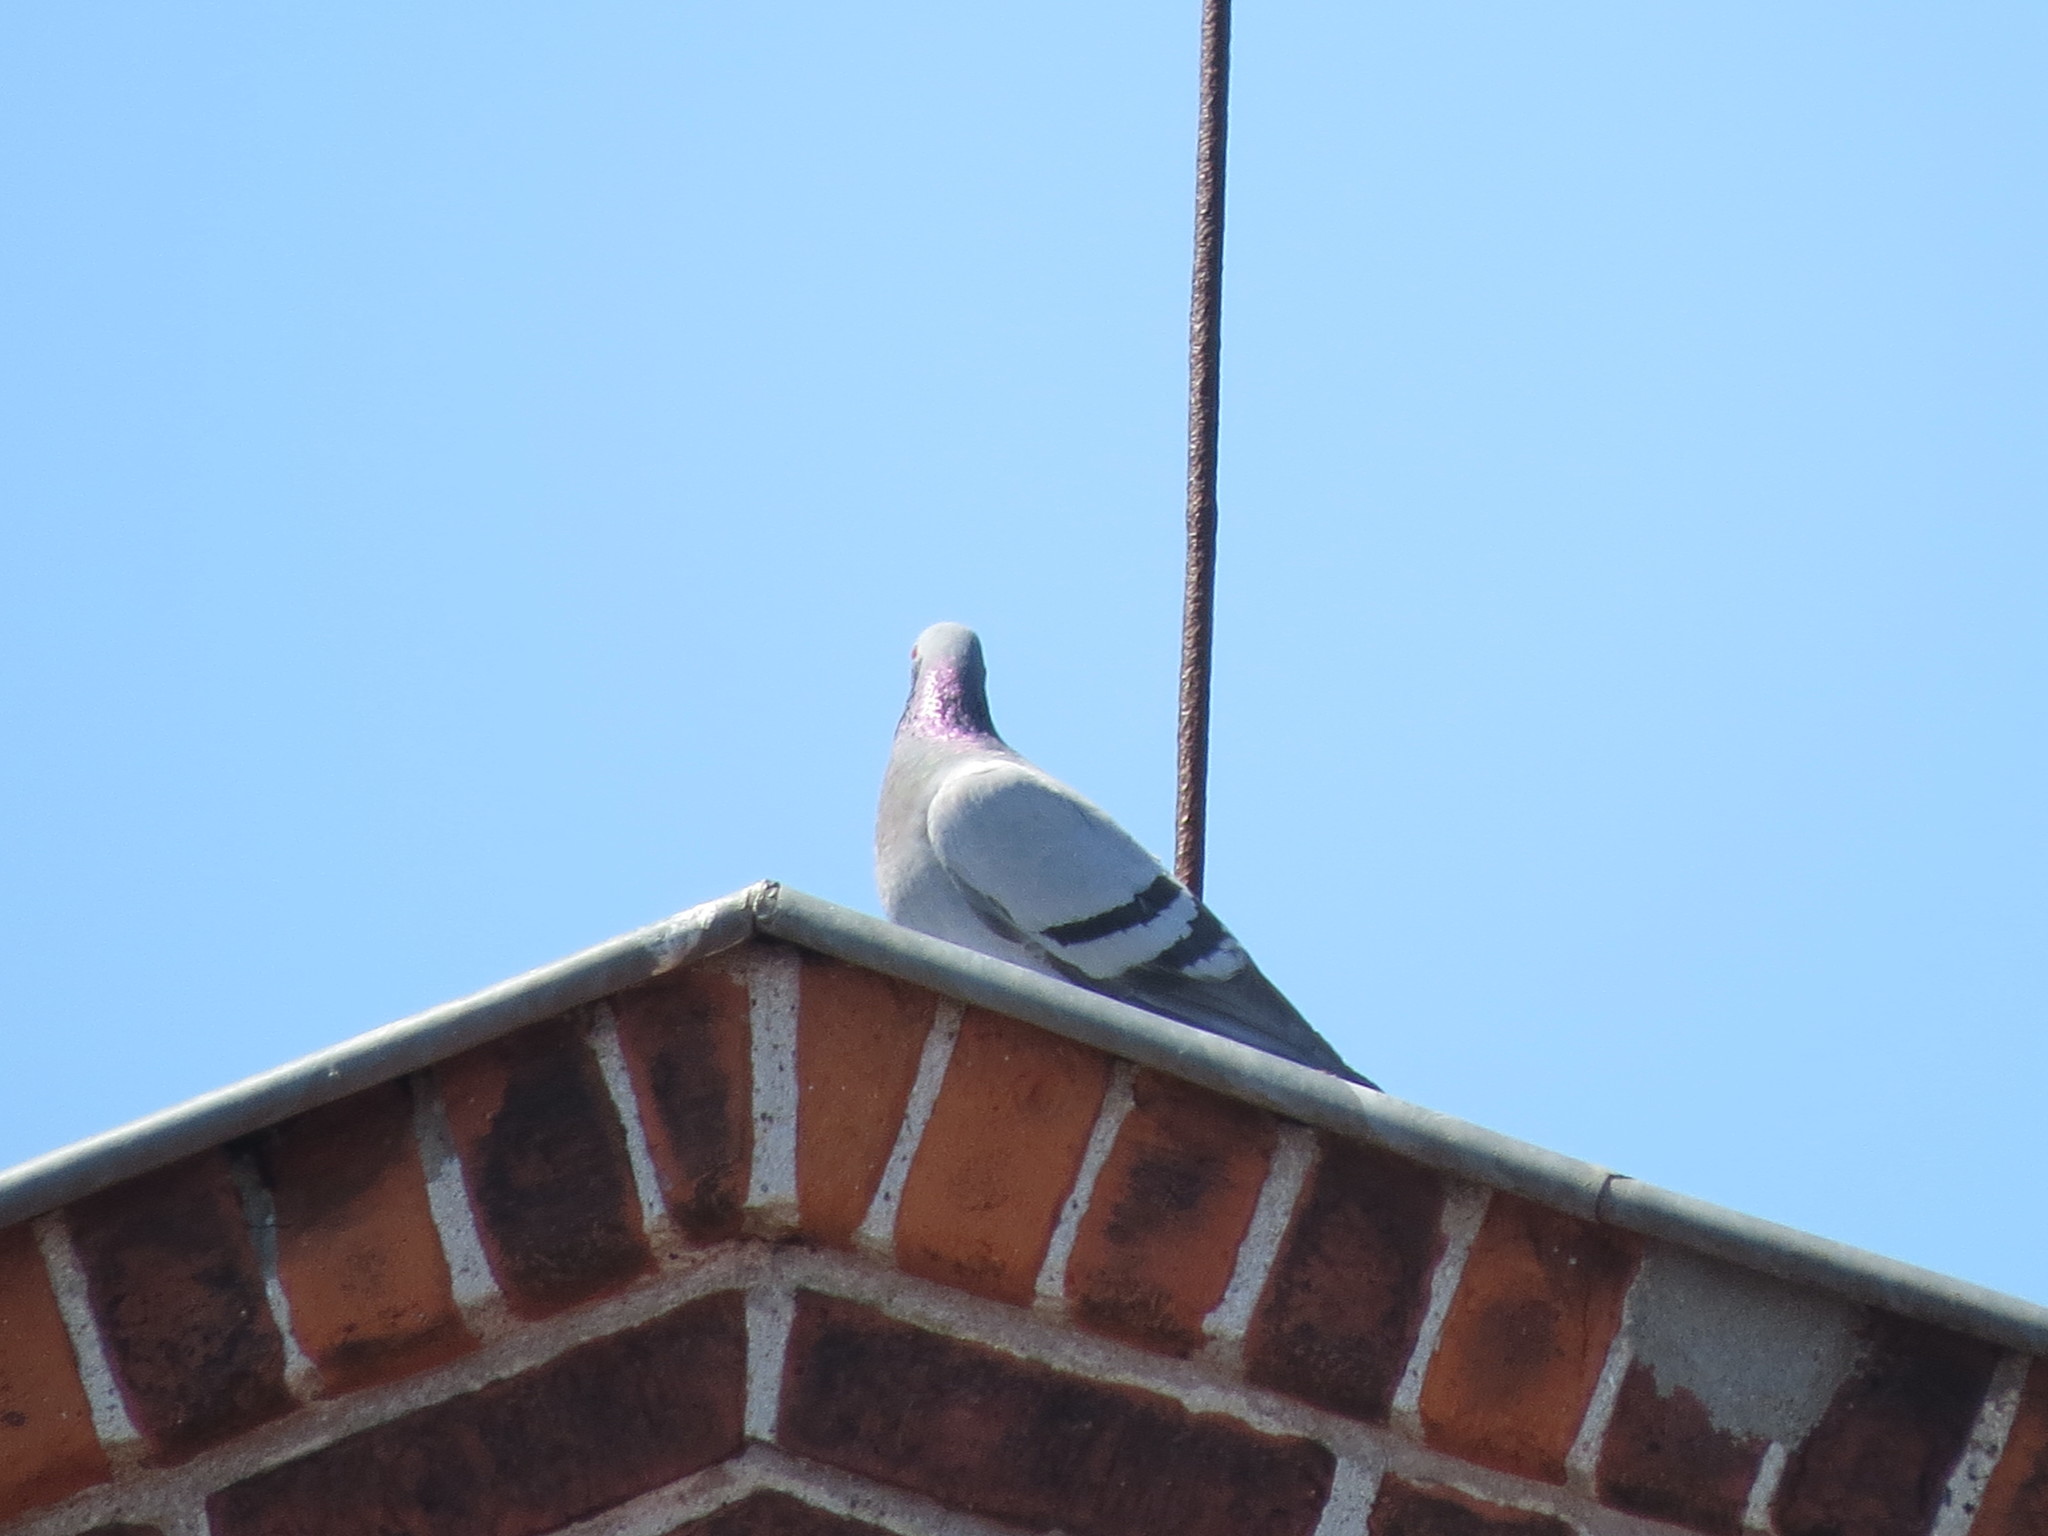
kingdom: Animalia
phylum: Chordata
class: Aves
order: Columbiformes
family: Columbidae
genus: Columba
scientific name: Columba livia
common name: Rock pigeon
